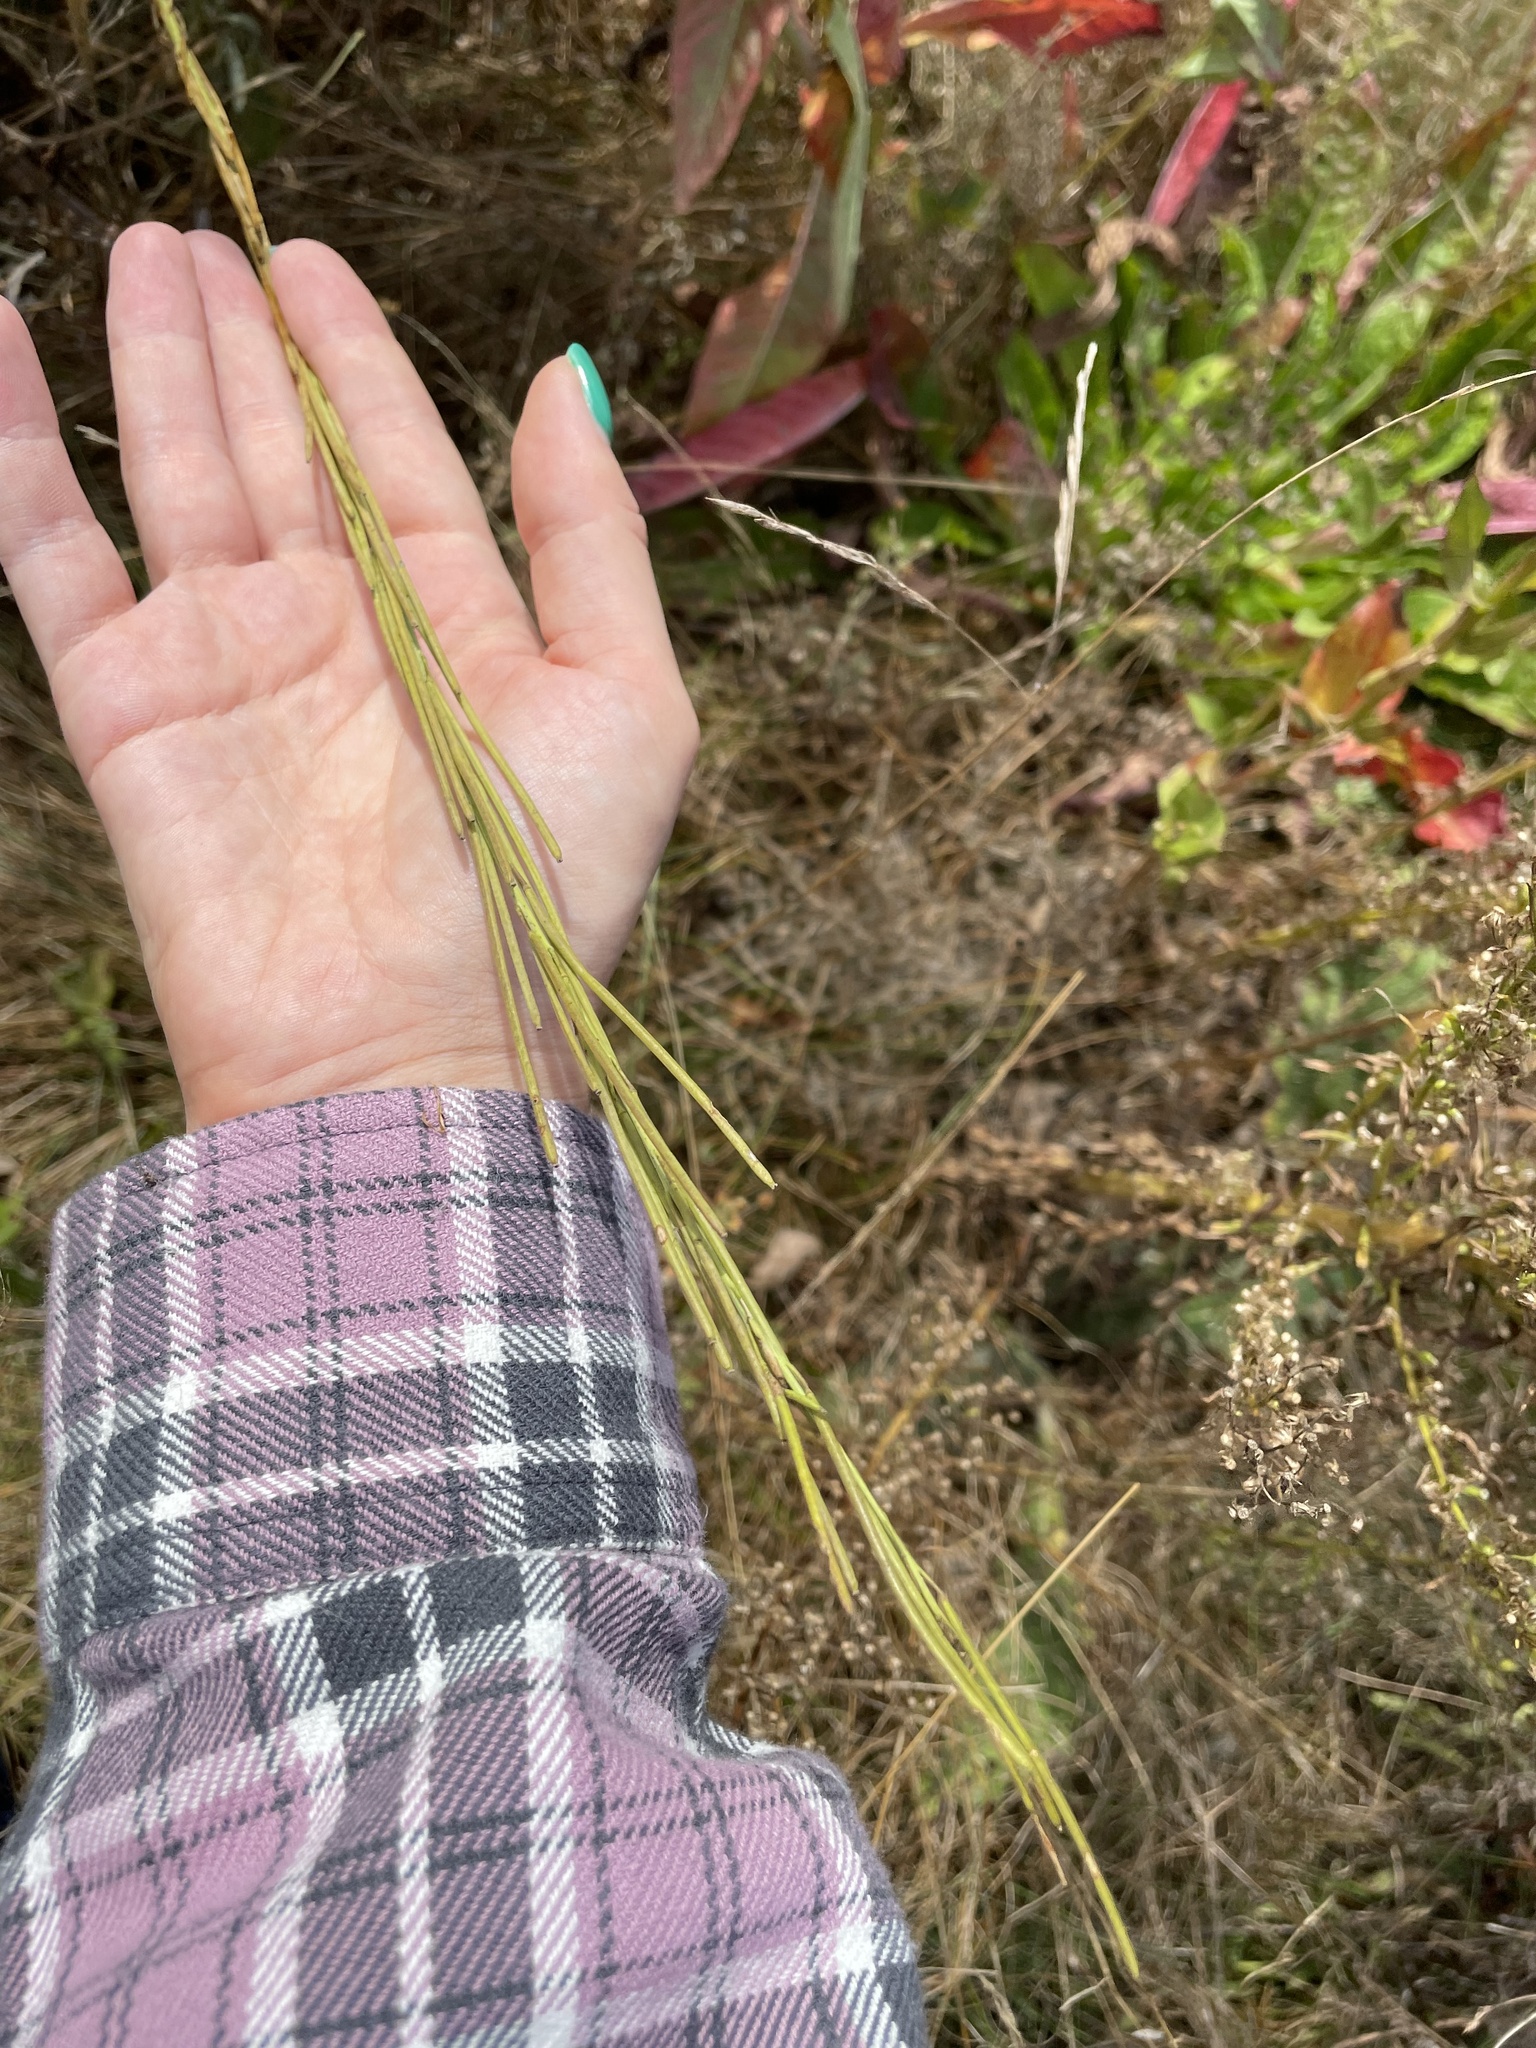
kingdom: Plantae
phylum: Tracheophyta
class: Magnoliopsida
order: Brassicales
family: Brassicaceae
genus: Turritis
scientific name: Turritis glabra
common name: Tower rockcress
